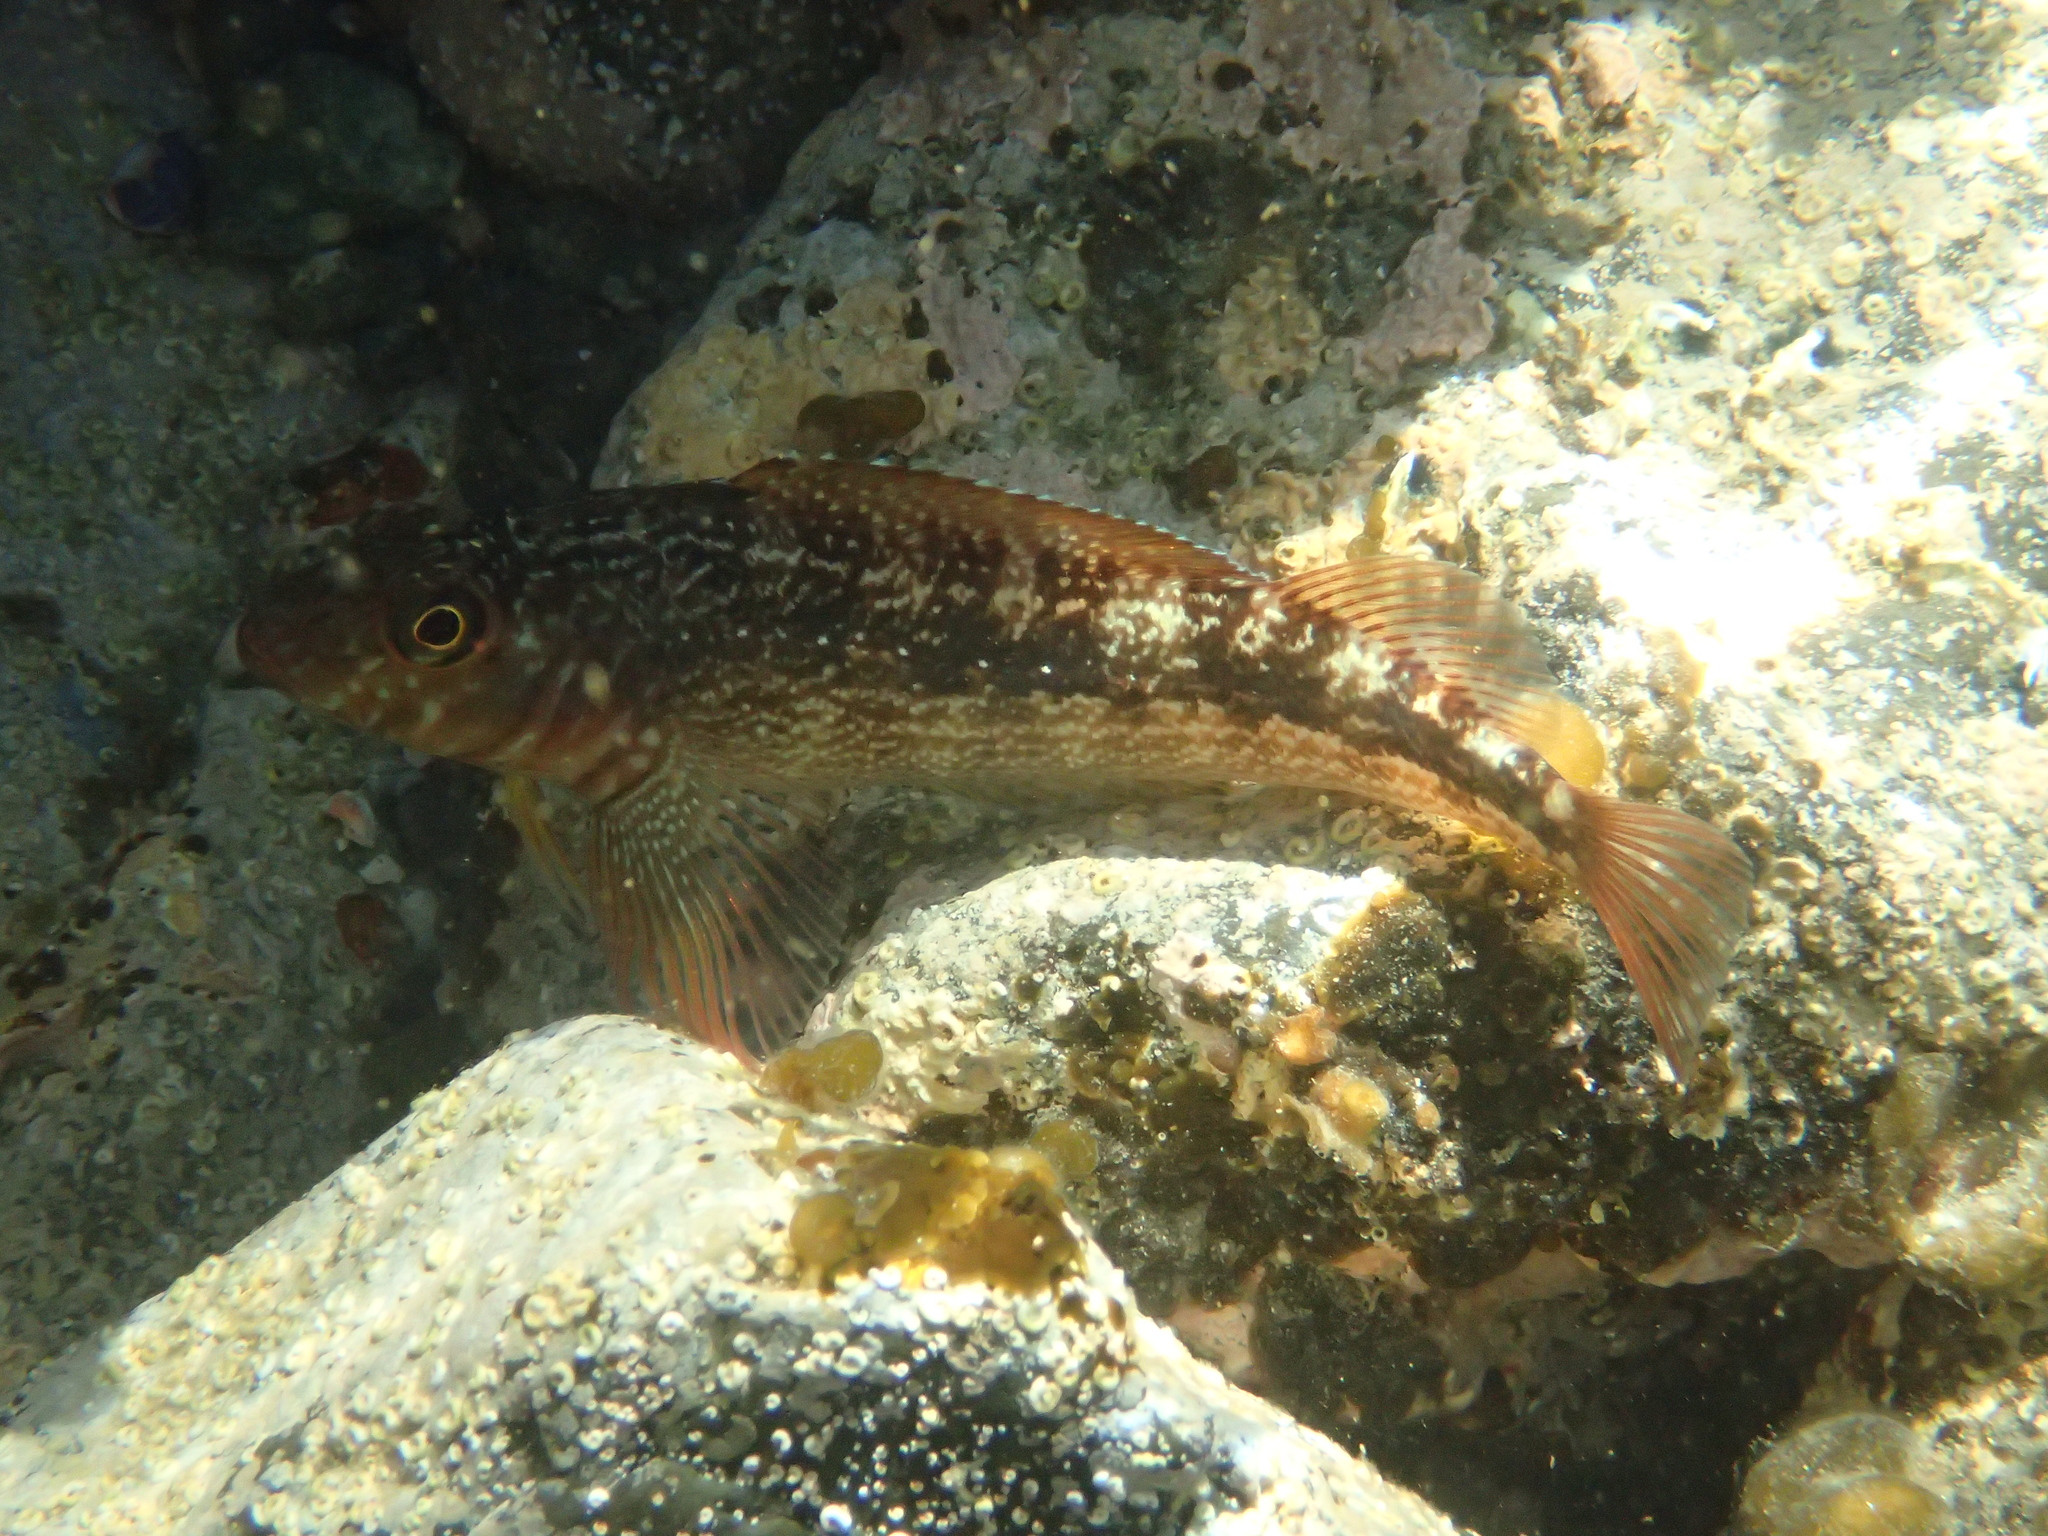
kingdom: Animalia
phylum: Chordata
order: Perciformes
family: Tripterygiidae
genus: Forsterygion
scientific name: Forsterygion varium
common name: Variable triplefin
